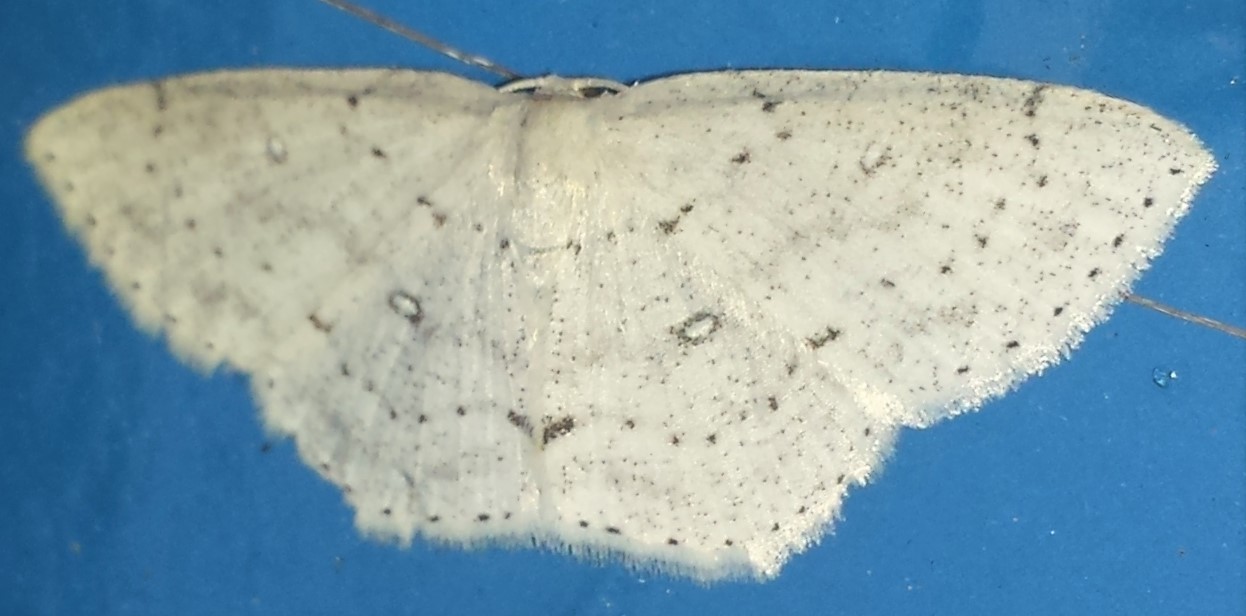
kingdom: Animalia
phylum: Arthropoda
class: Insecta
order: Lepidoptera
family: Geometridae
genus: Cyclophora
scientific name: Cyclophora pendulinaria
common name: Sweet fern geometer
